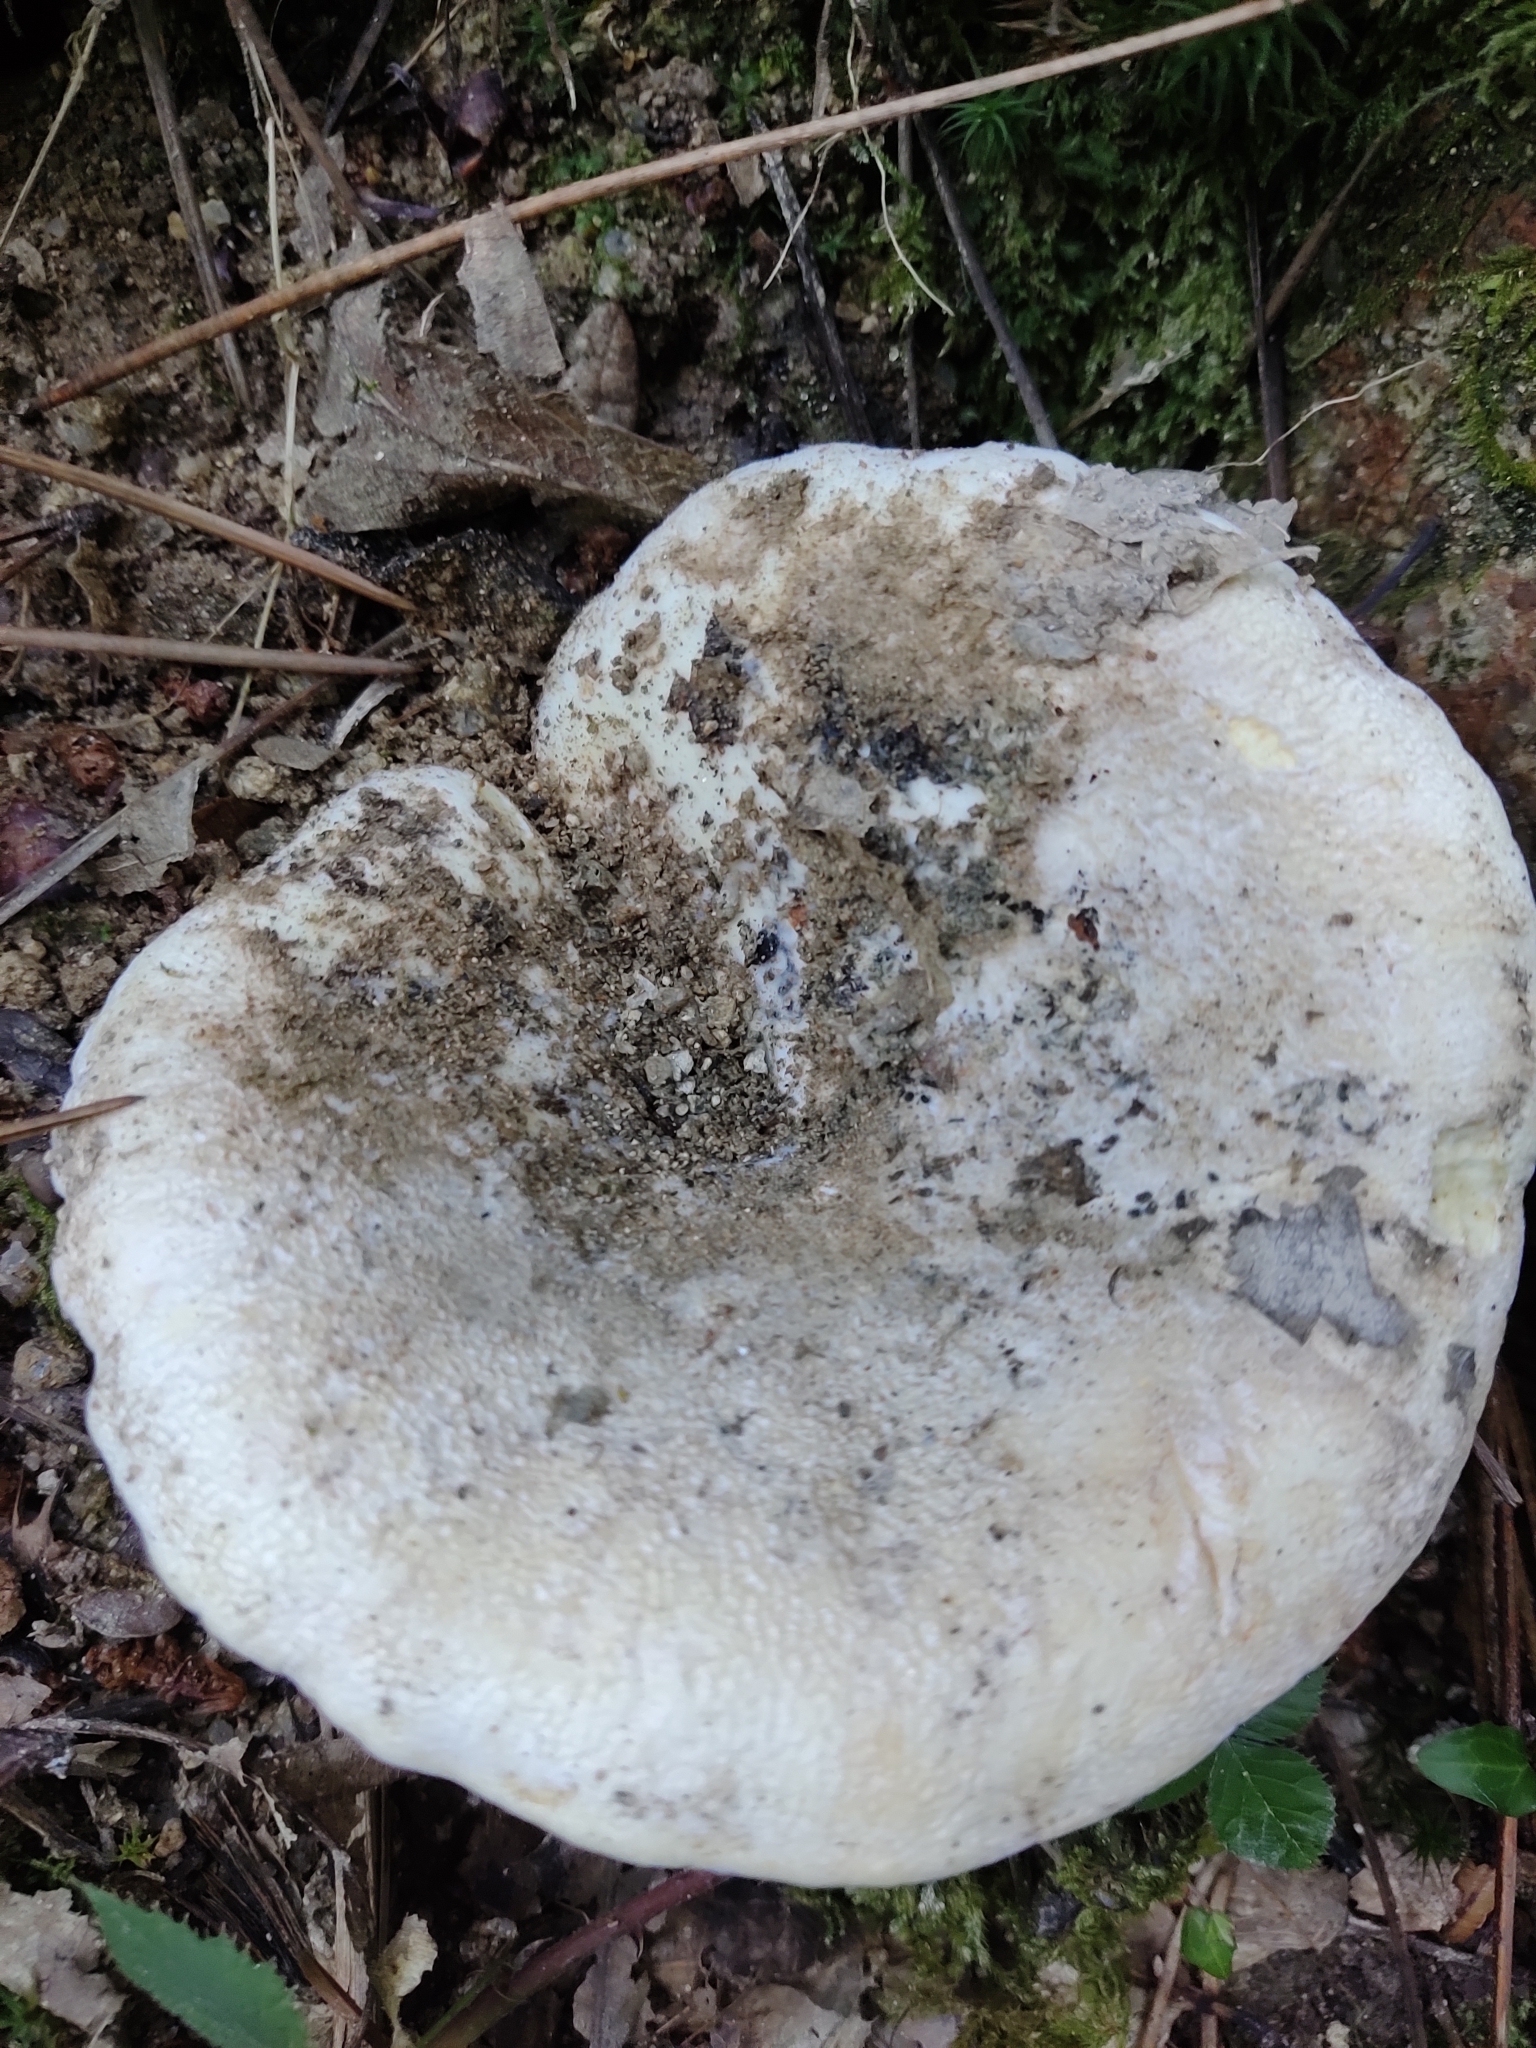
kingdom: Fungi
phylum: Basidiomycota
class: Agaricomycetes
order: Russulales
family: Russulaceae
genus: Lactifluus
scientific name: Lactifluus piperatus
